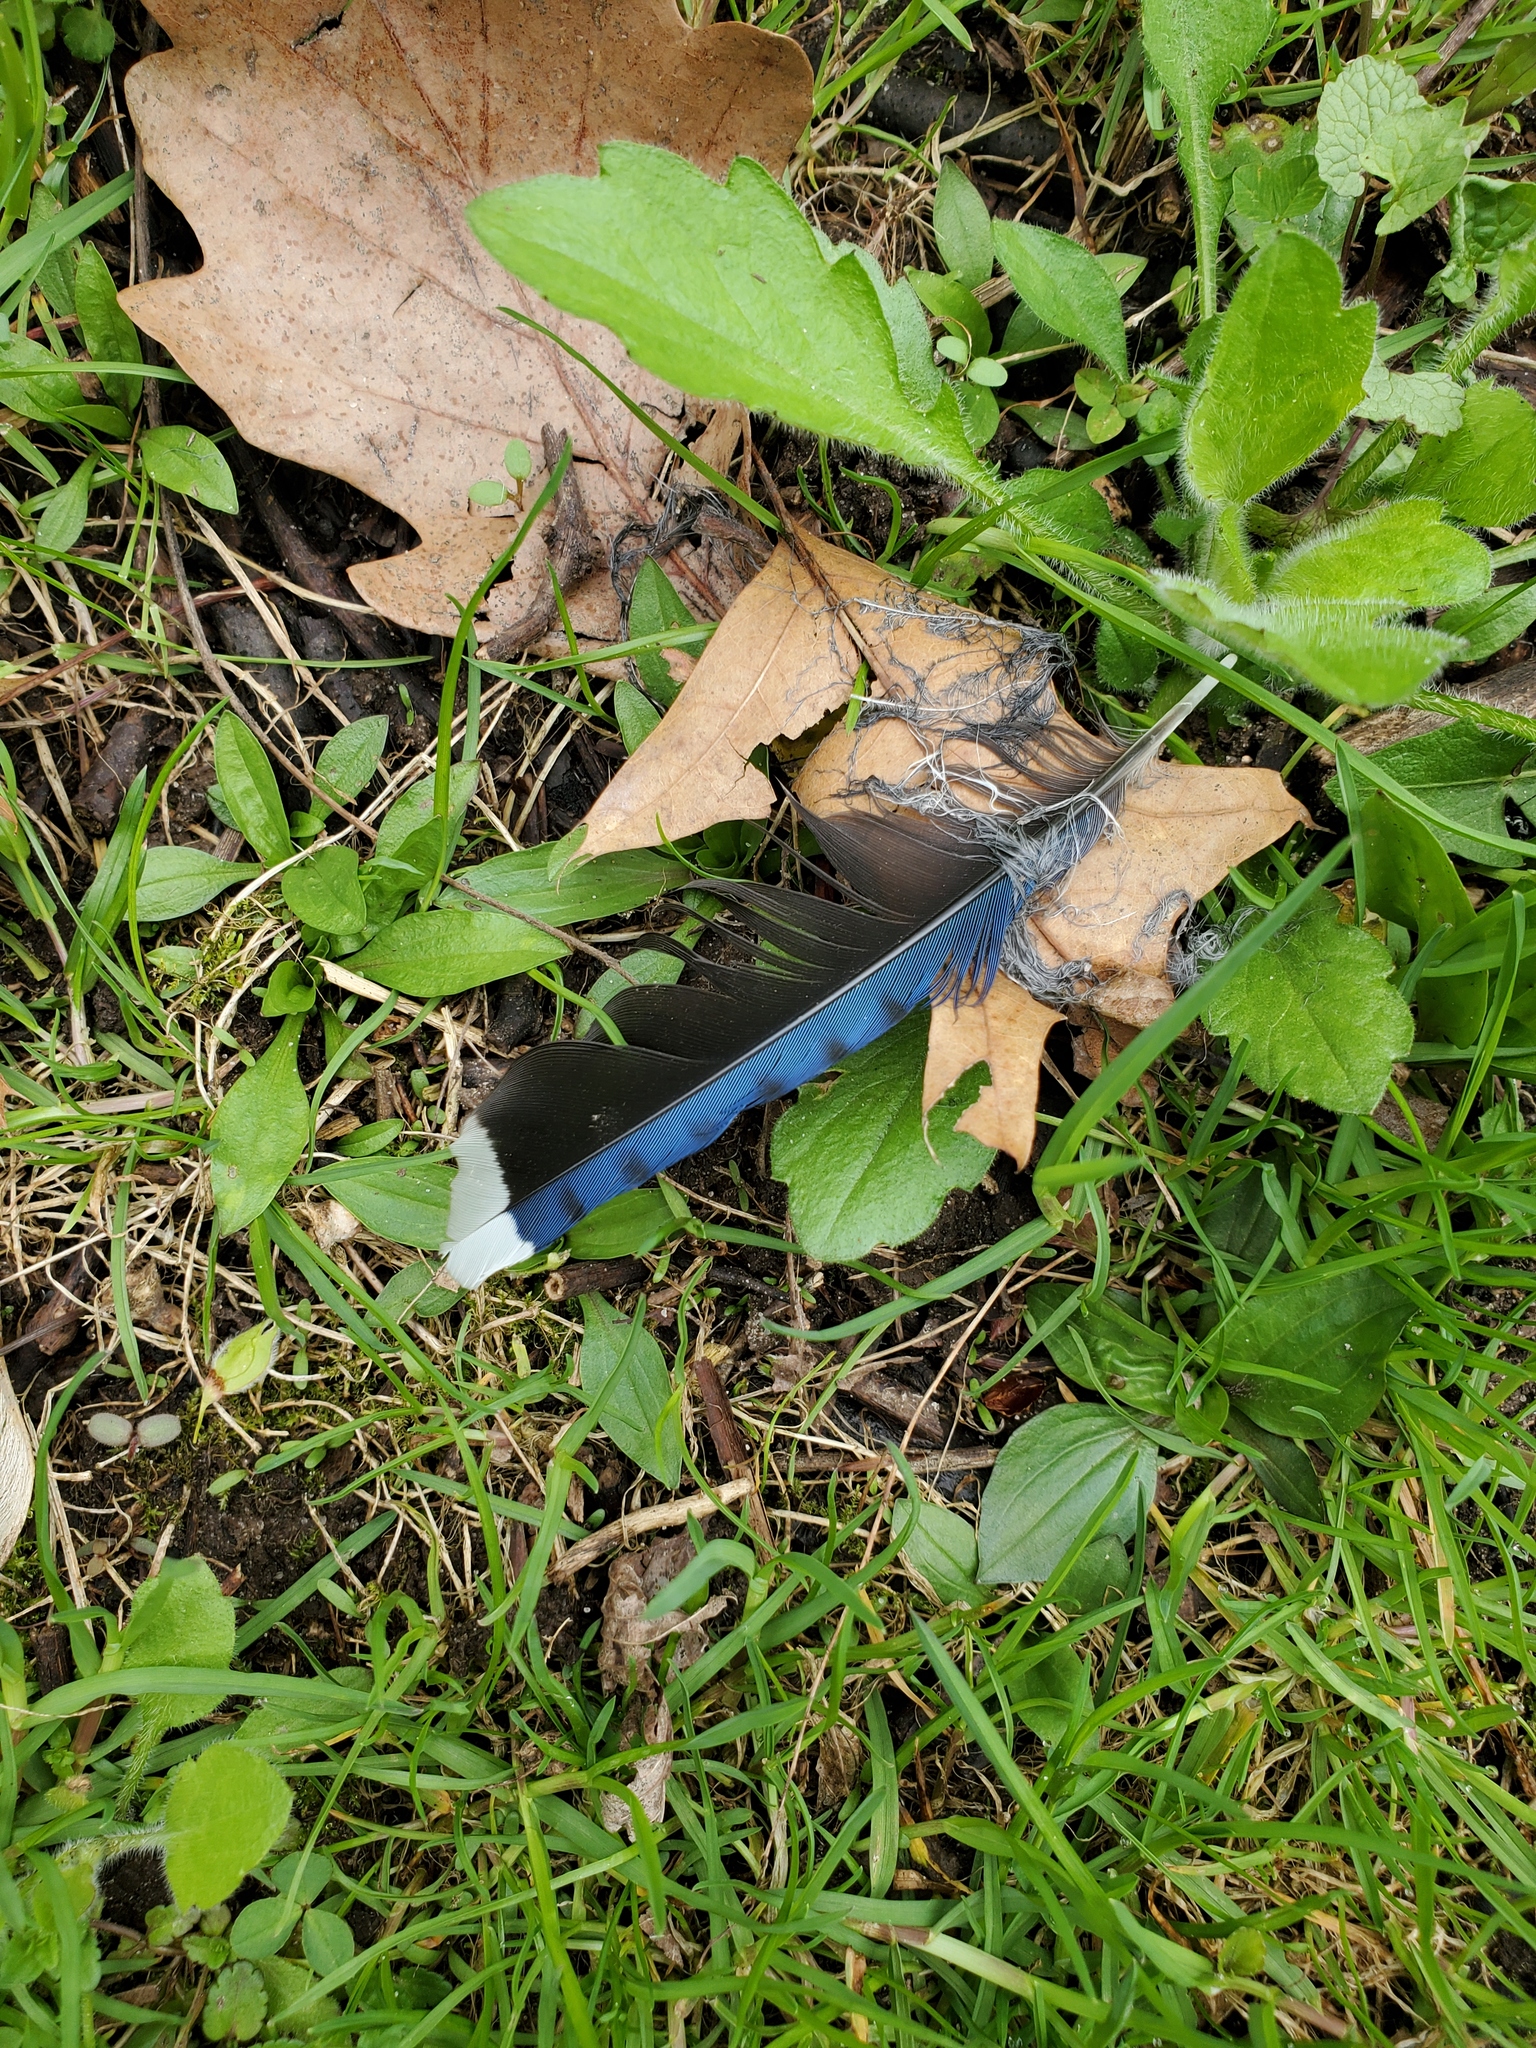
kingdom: Animalia
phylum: Chordata
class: Aves
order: Passeriformes
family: Corvidae
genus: Cyanocitta
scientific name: Cyanocitta cristata
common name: Blue jay
